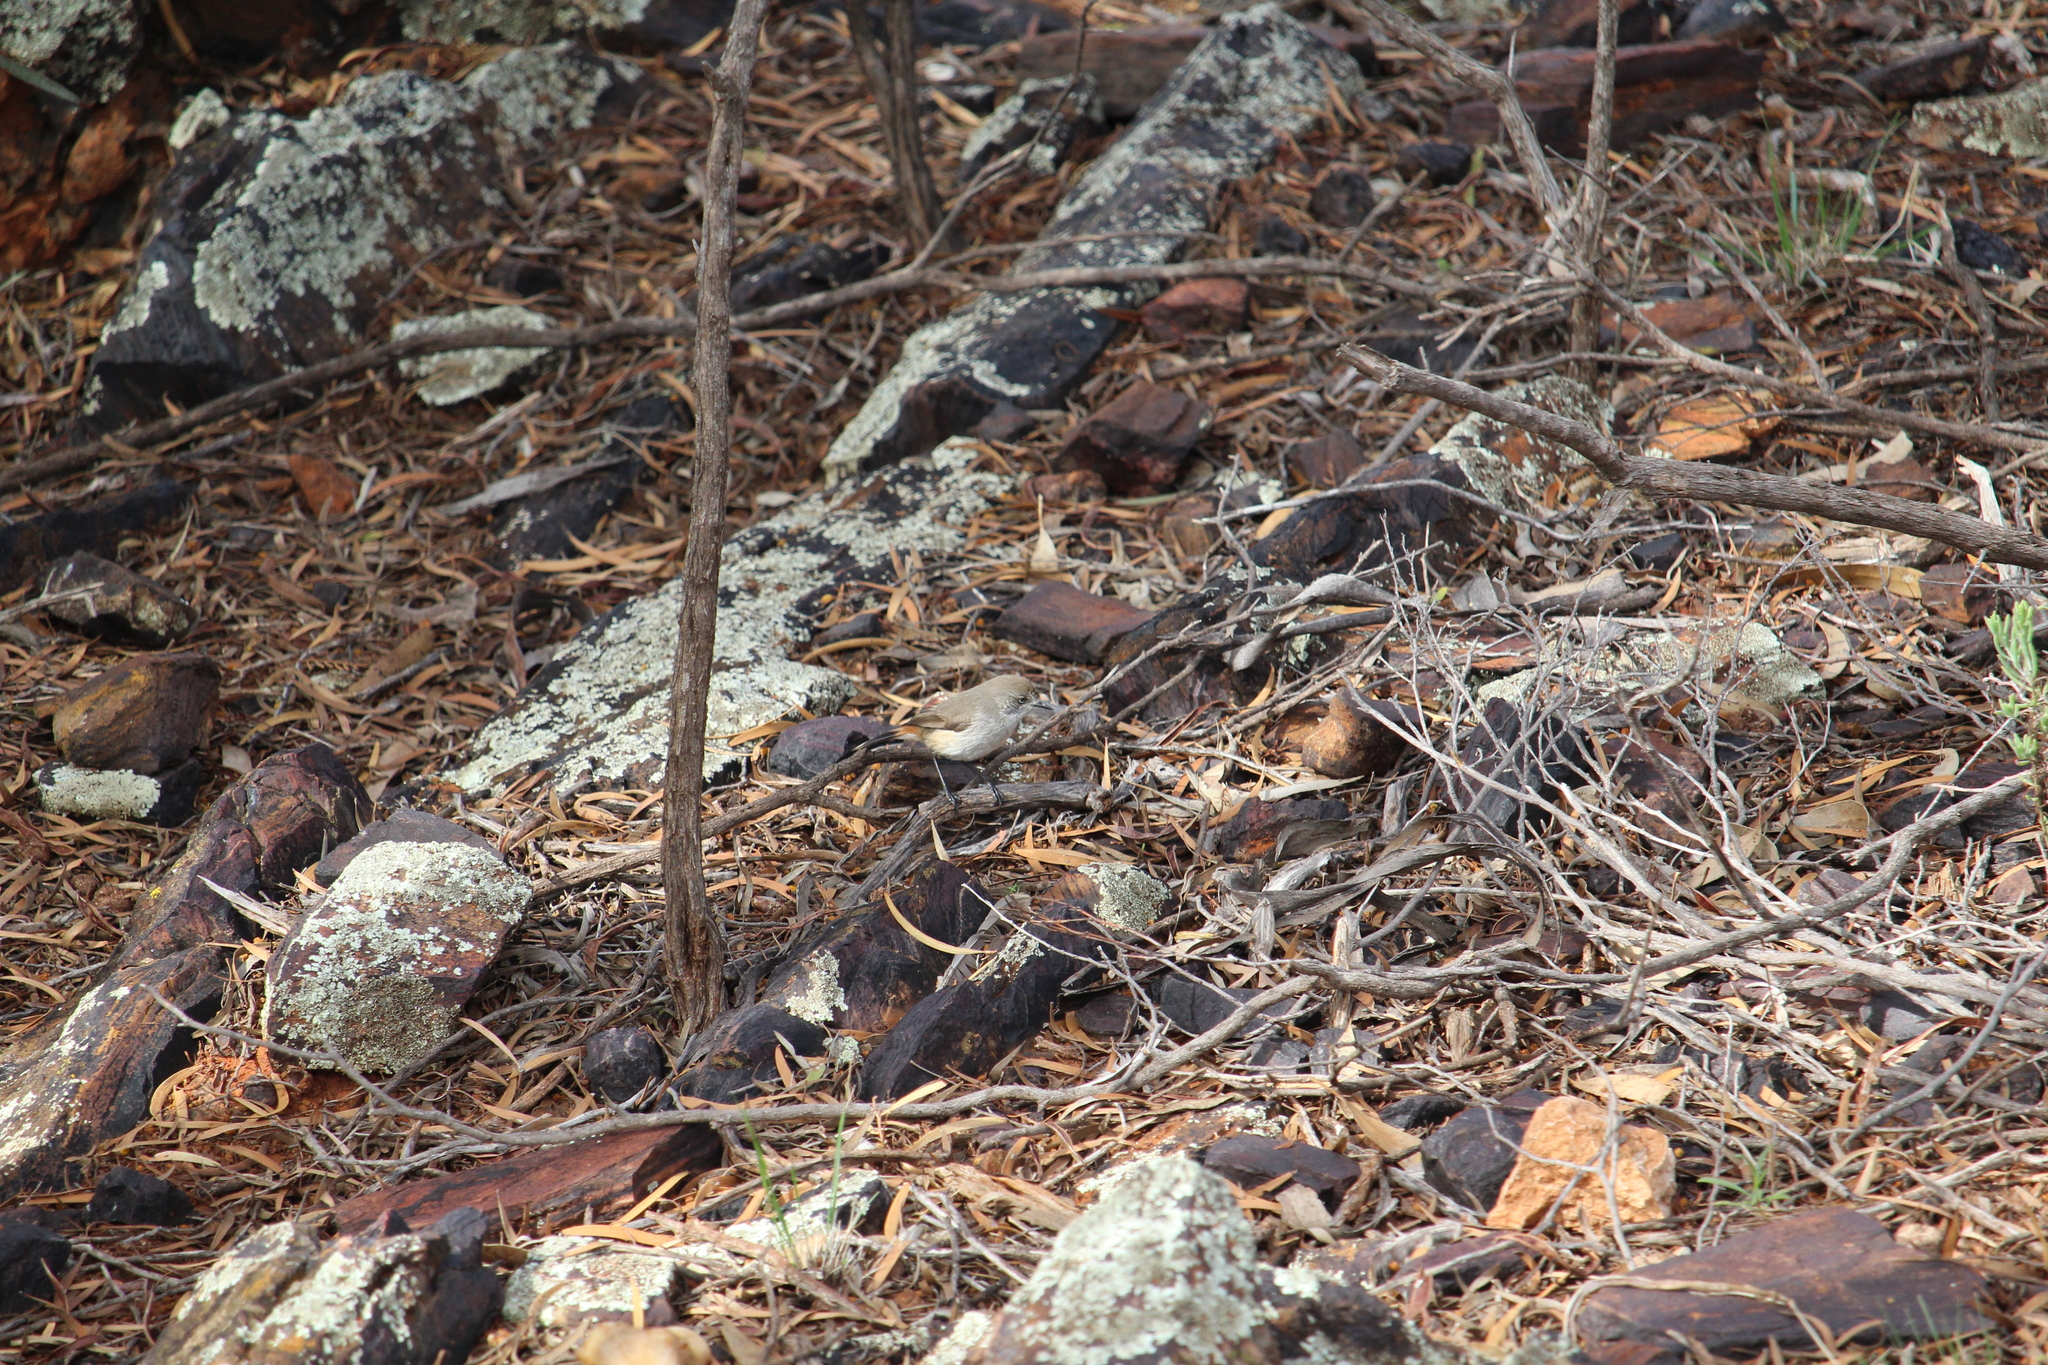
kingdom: Animalia
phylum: Chordata
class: Aves
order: Passeriformes
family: Acanthizidae
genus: Acanthiza
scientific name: Acanthiza uropygialis
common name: Chestnut-rumped thornbill
